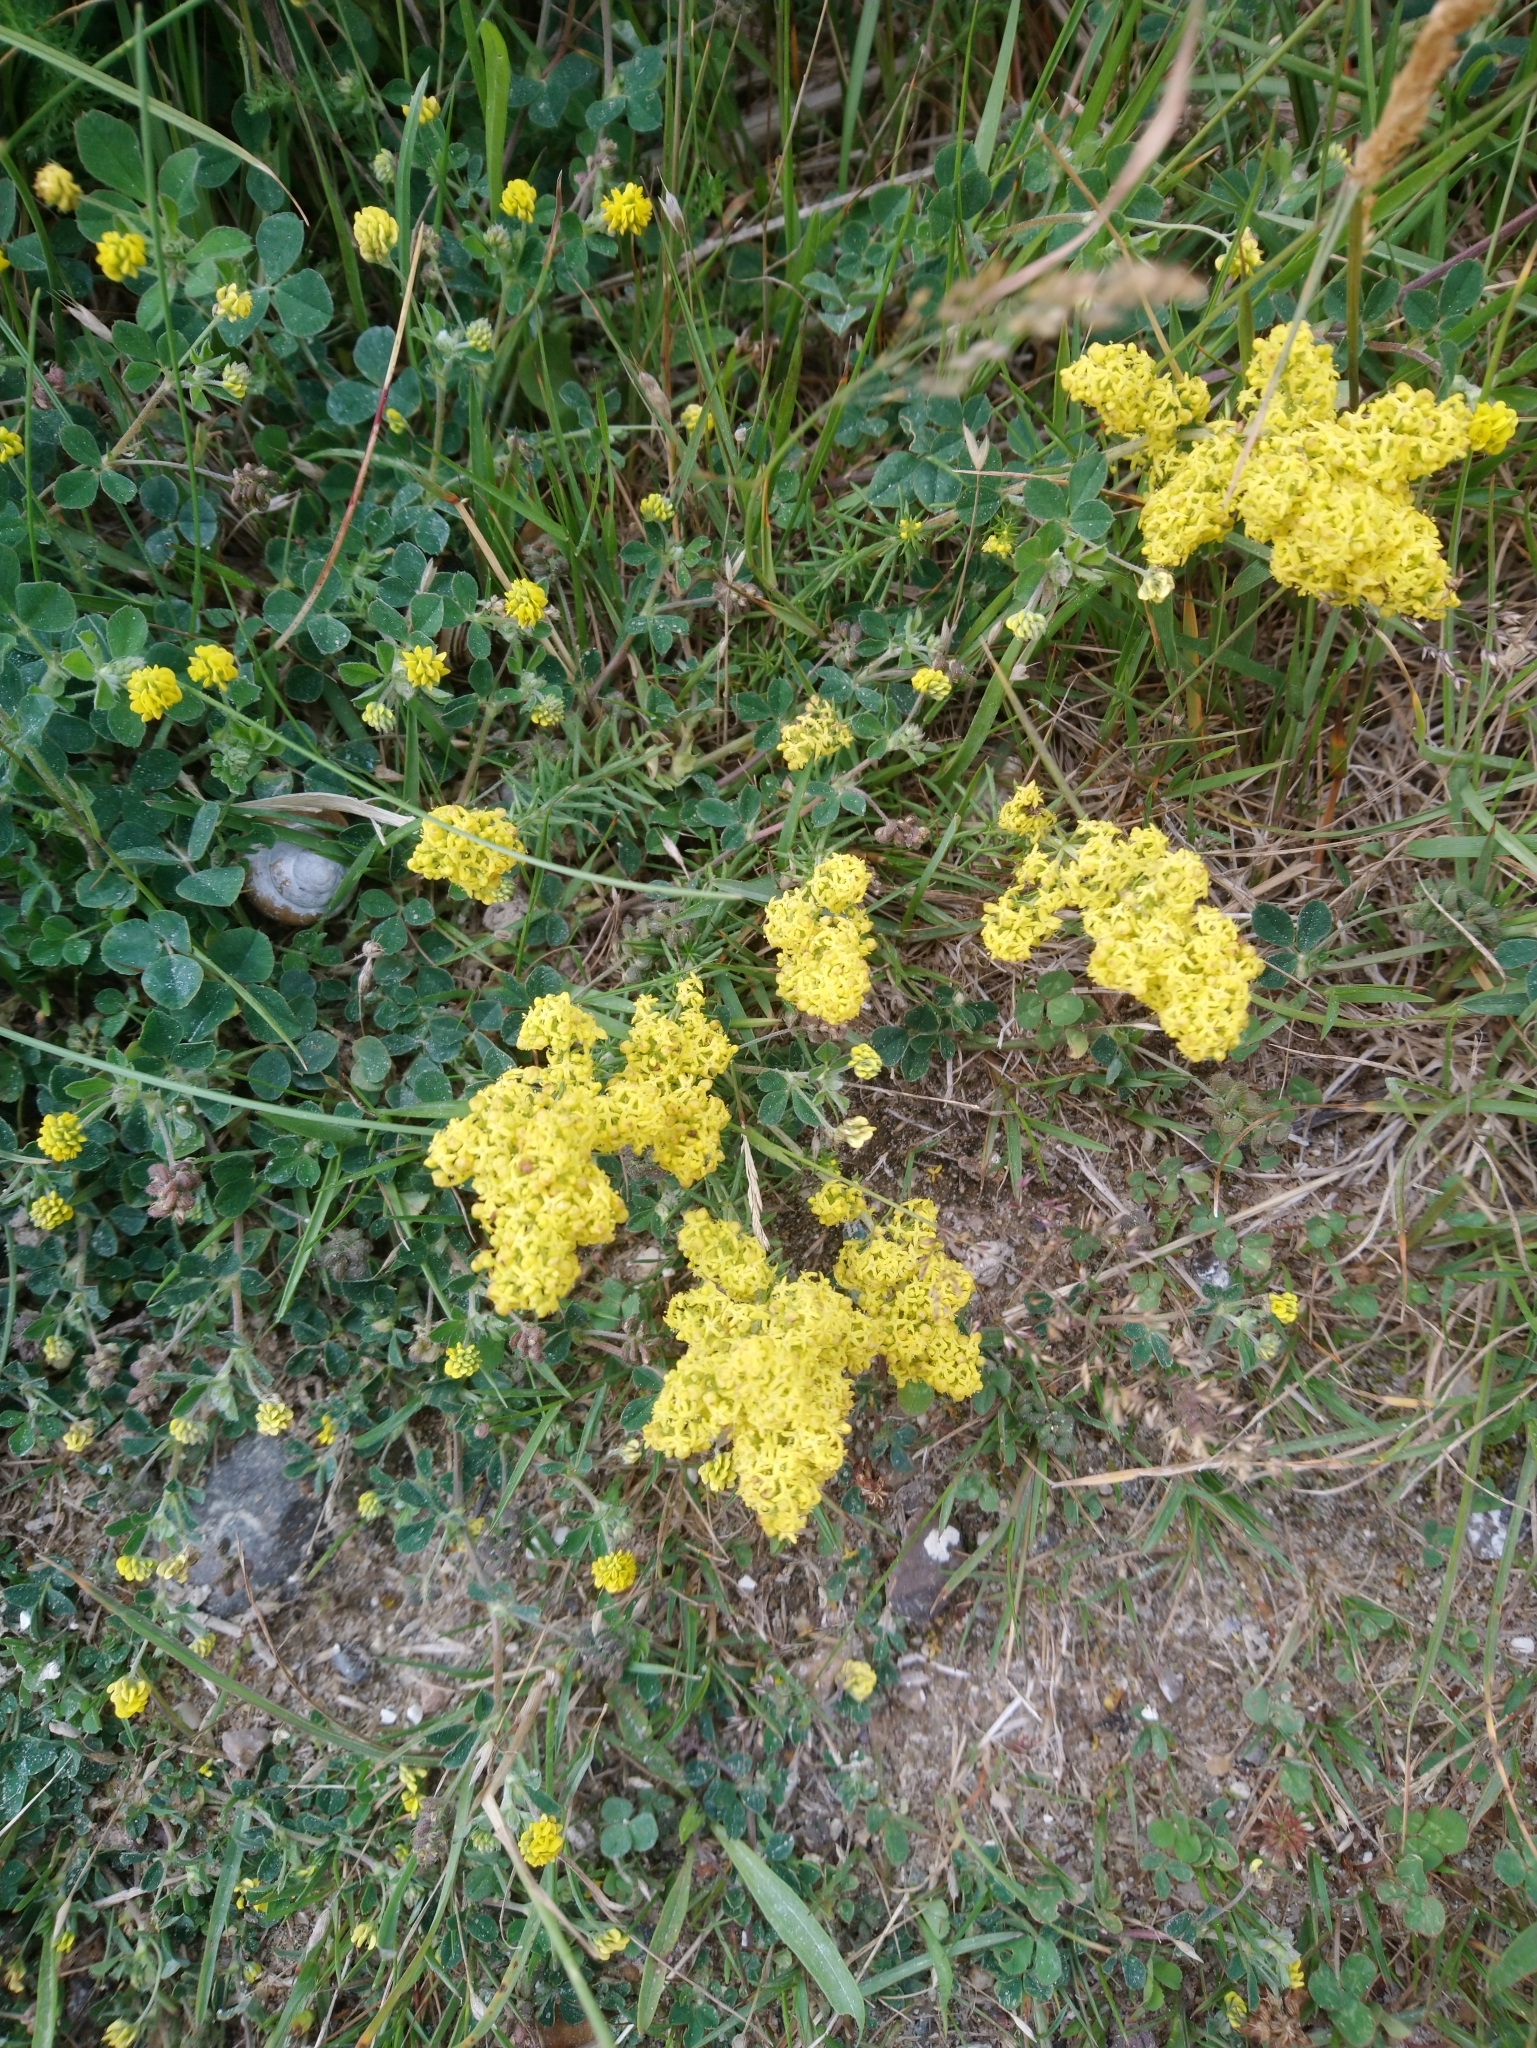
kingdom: Plantae
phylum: Tracheophyta
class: Magnoliopsida
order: Gentianales
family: Rubiaceae
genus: Galium
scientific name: Galium verum
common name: Lady's bedstraw
